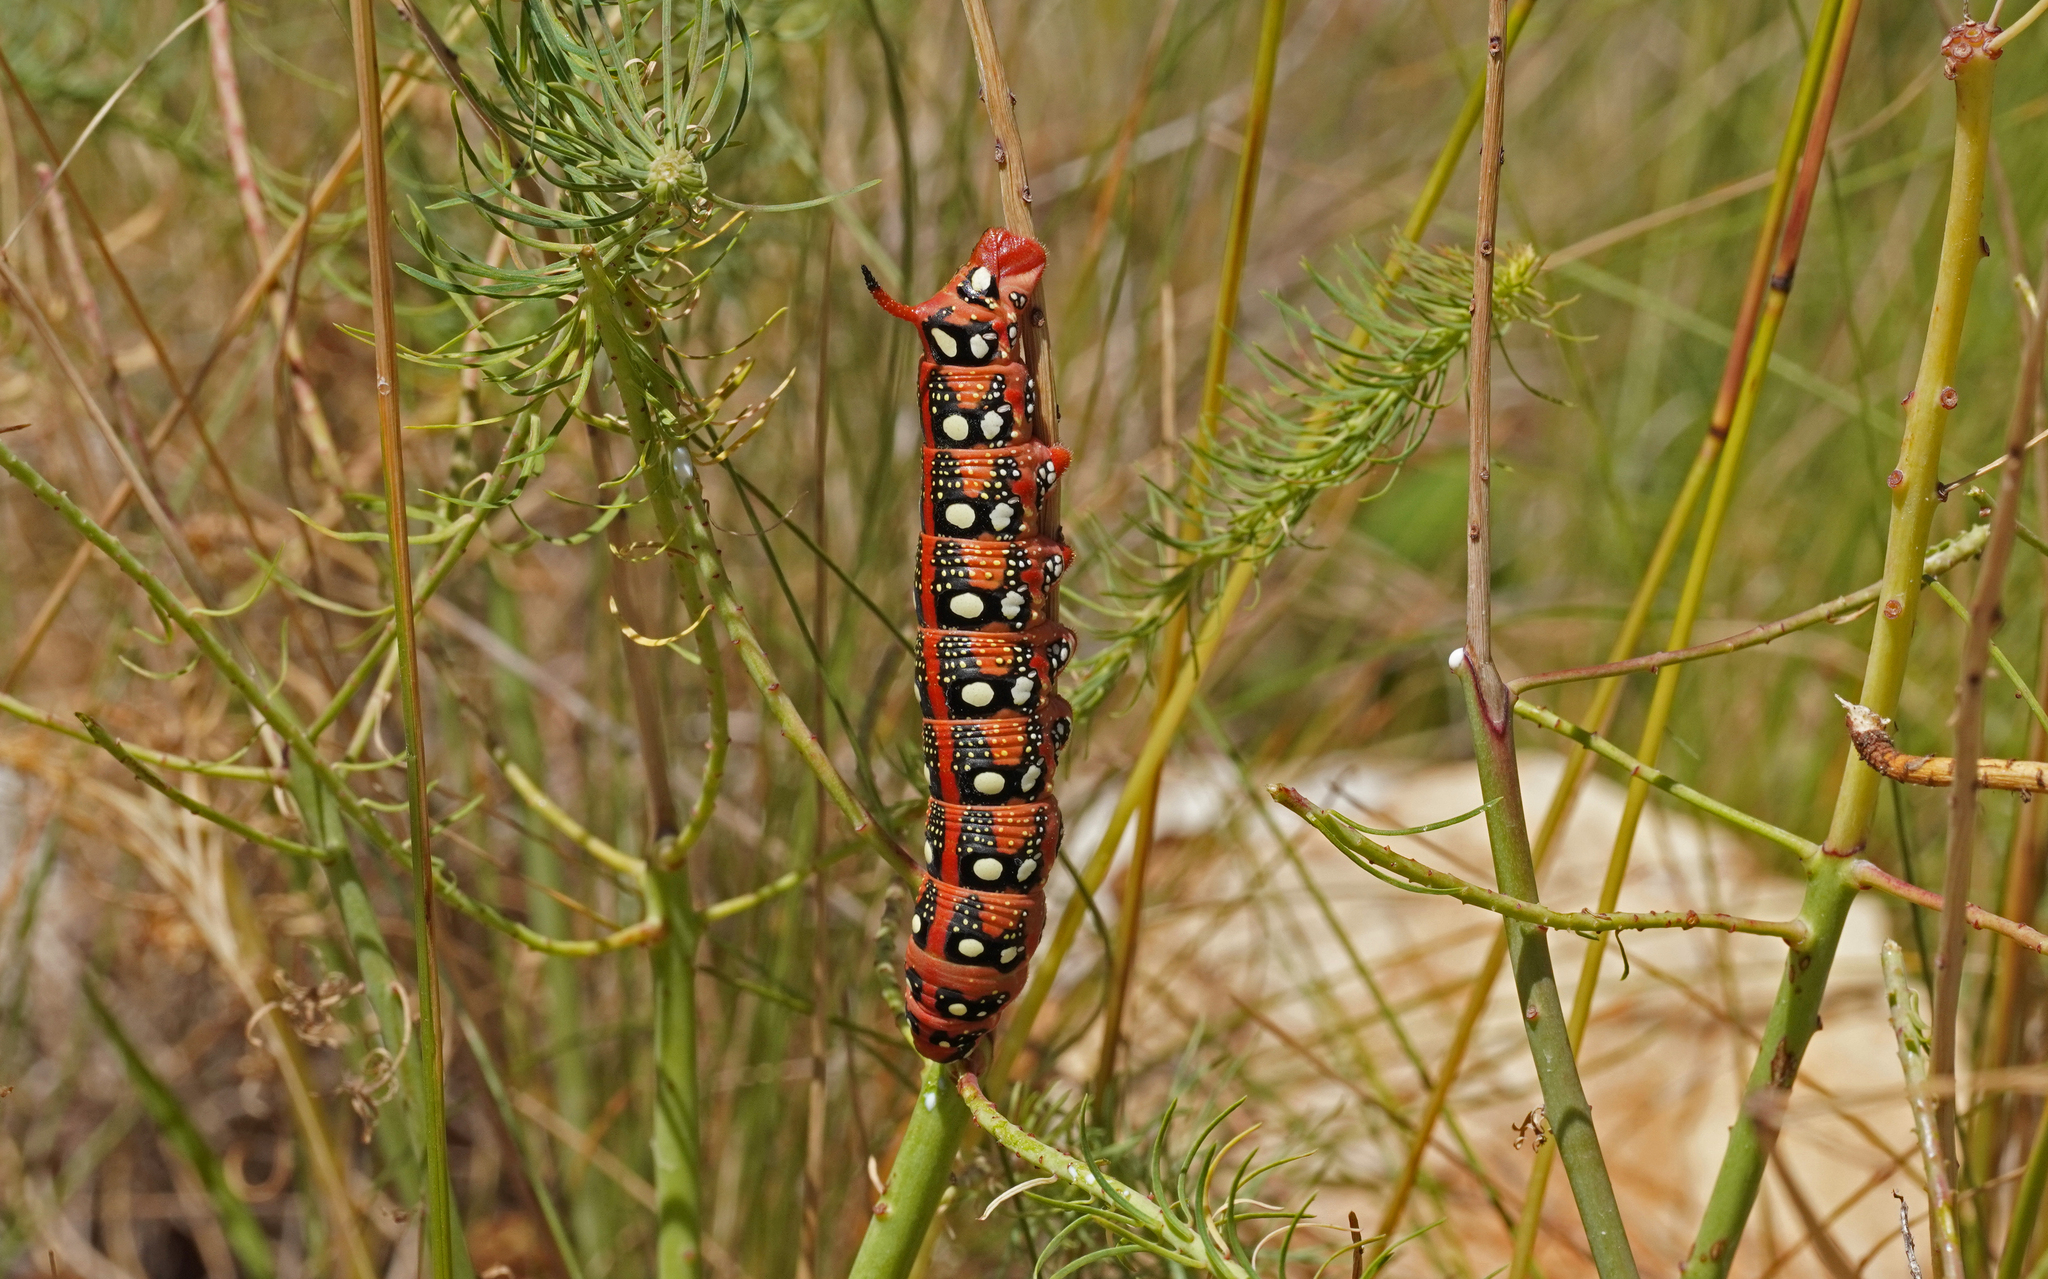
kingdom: Animalia
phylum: Arthropoda
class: Insecta
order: Lepidoptera
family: Sphingidae
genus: Hyles
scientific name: Hyles euphorbiae
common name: Spurge hawk-moth
